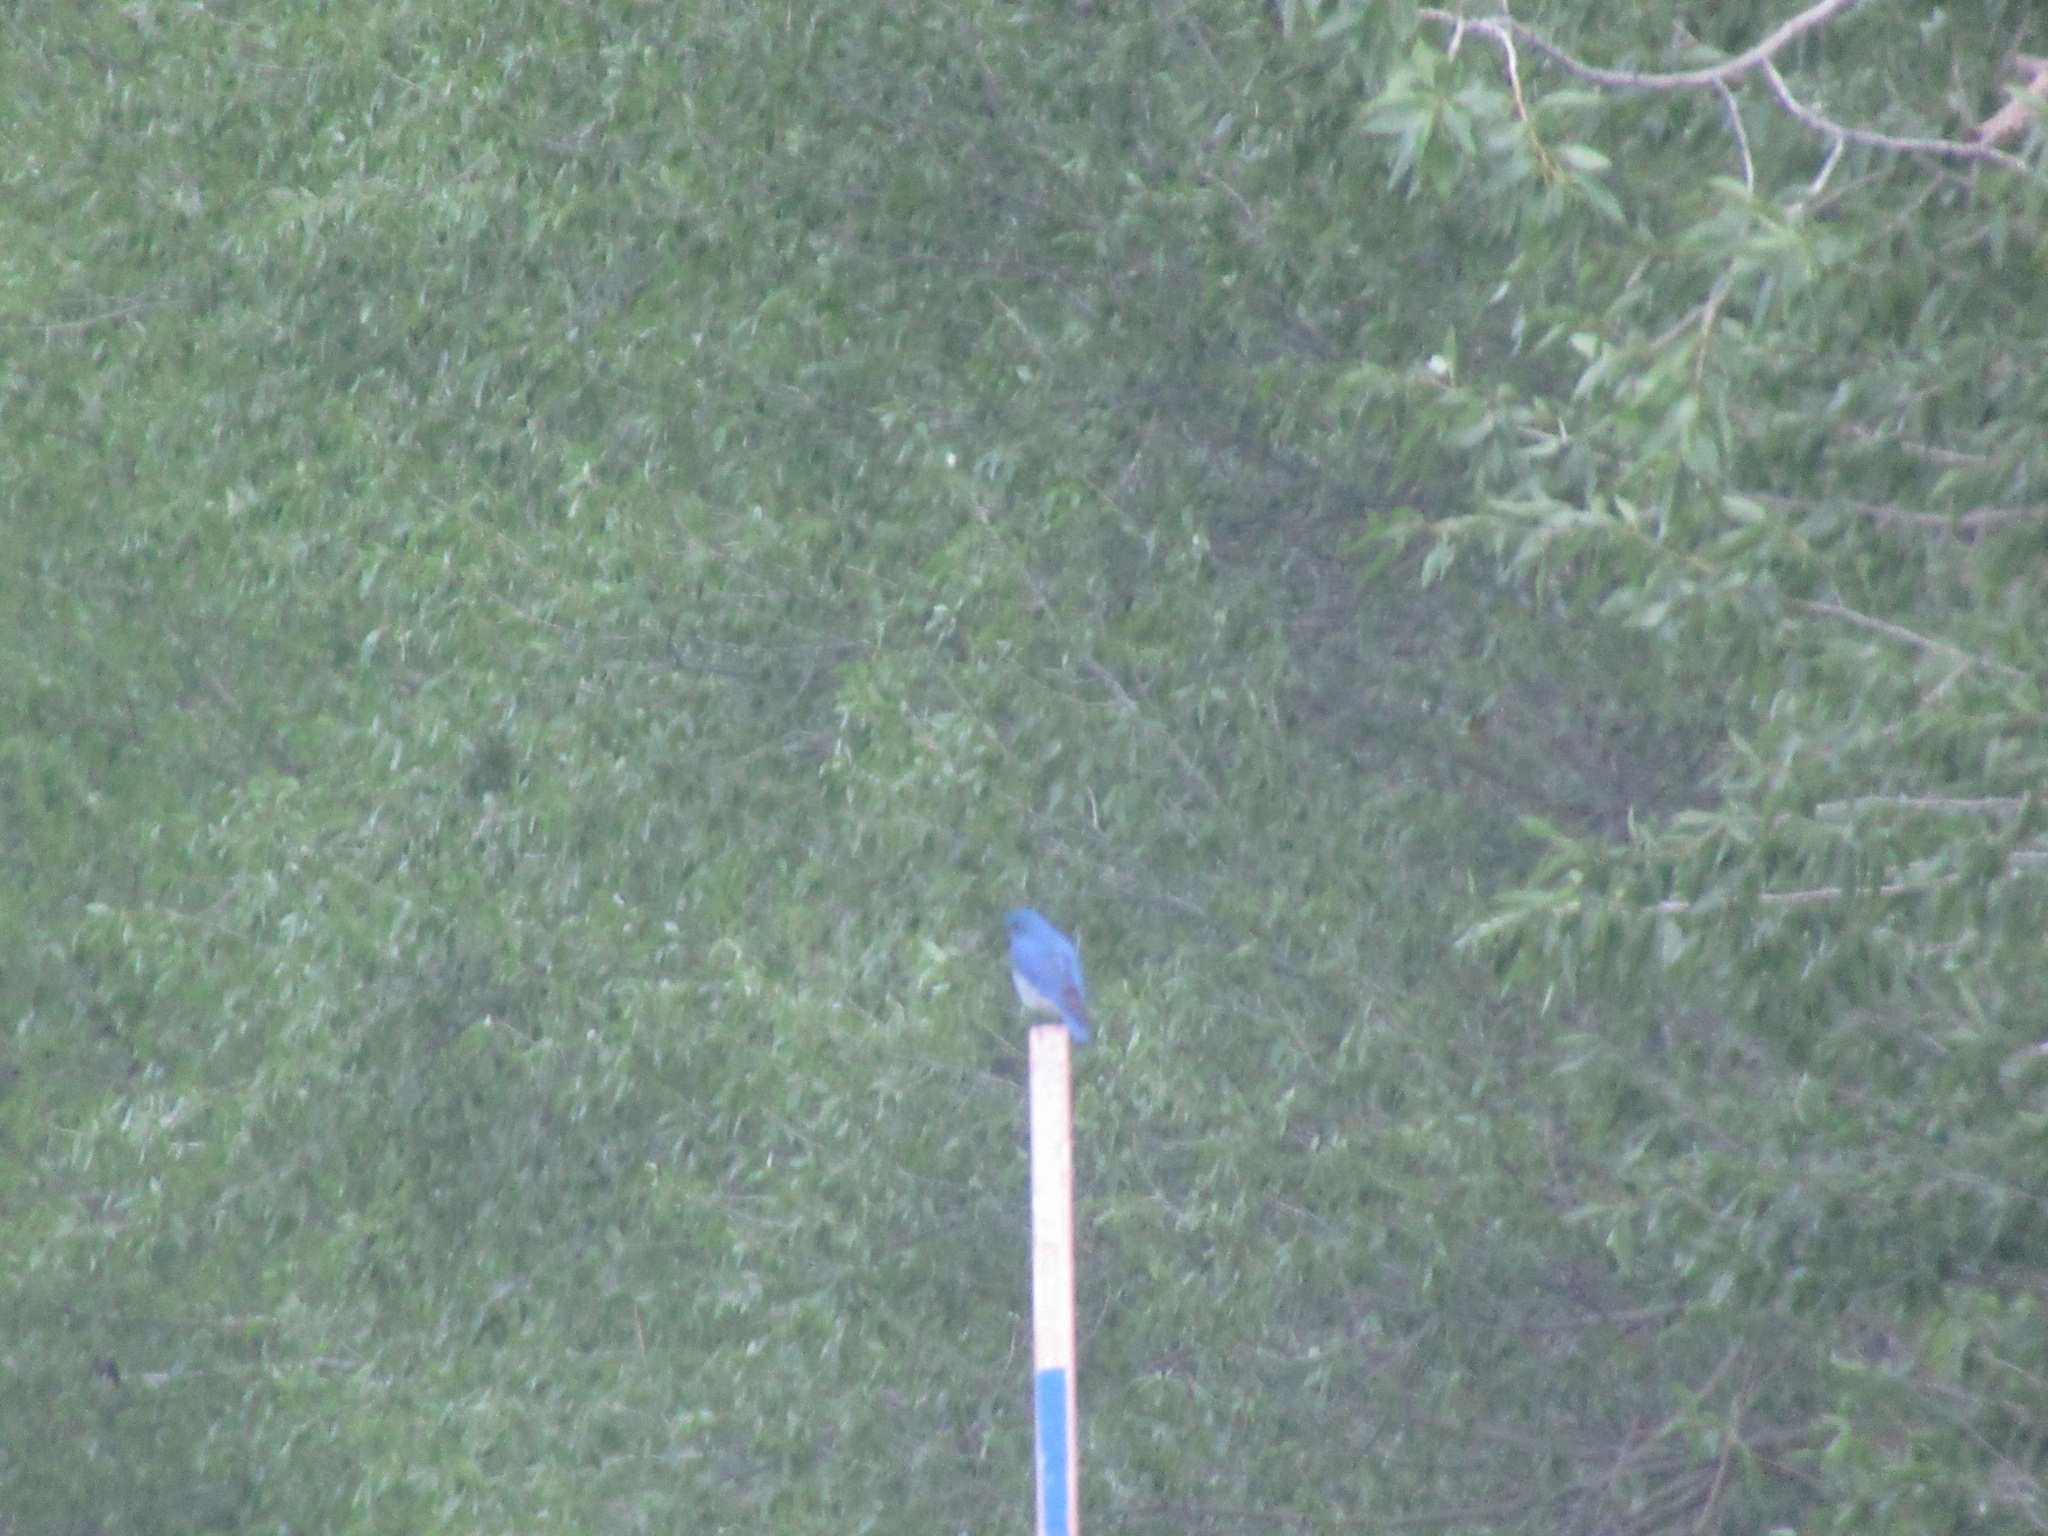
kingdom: Animalia
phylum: Chordata
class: Aves
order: Passeriformes
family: Turdidae
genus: Sialia
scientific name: Sialia currucoides
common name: Mountain bluebird
